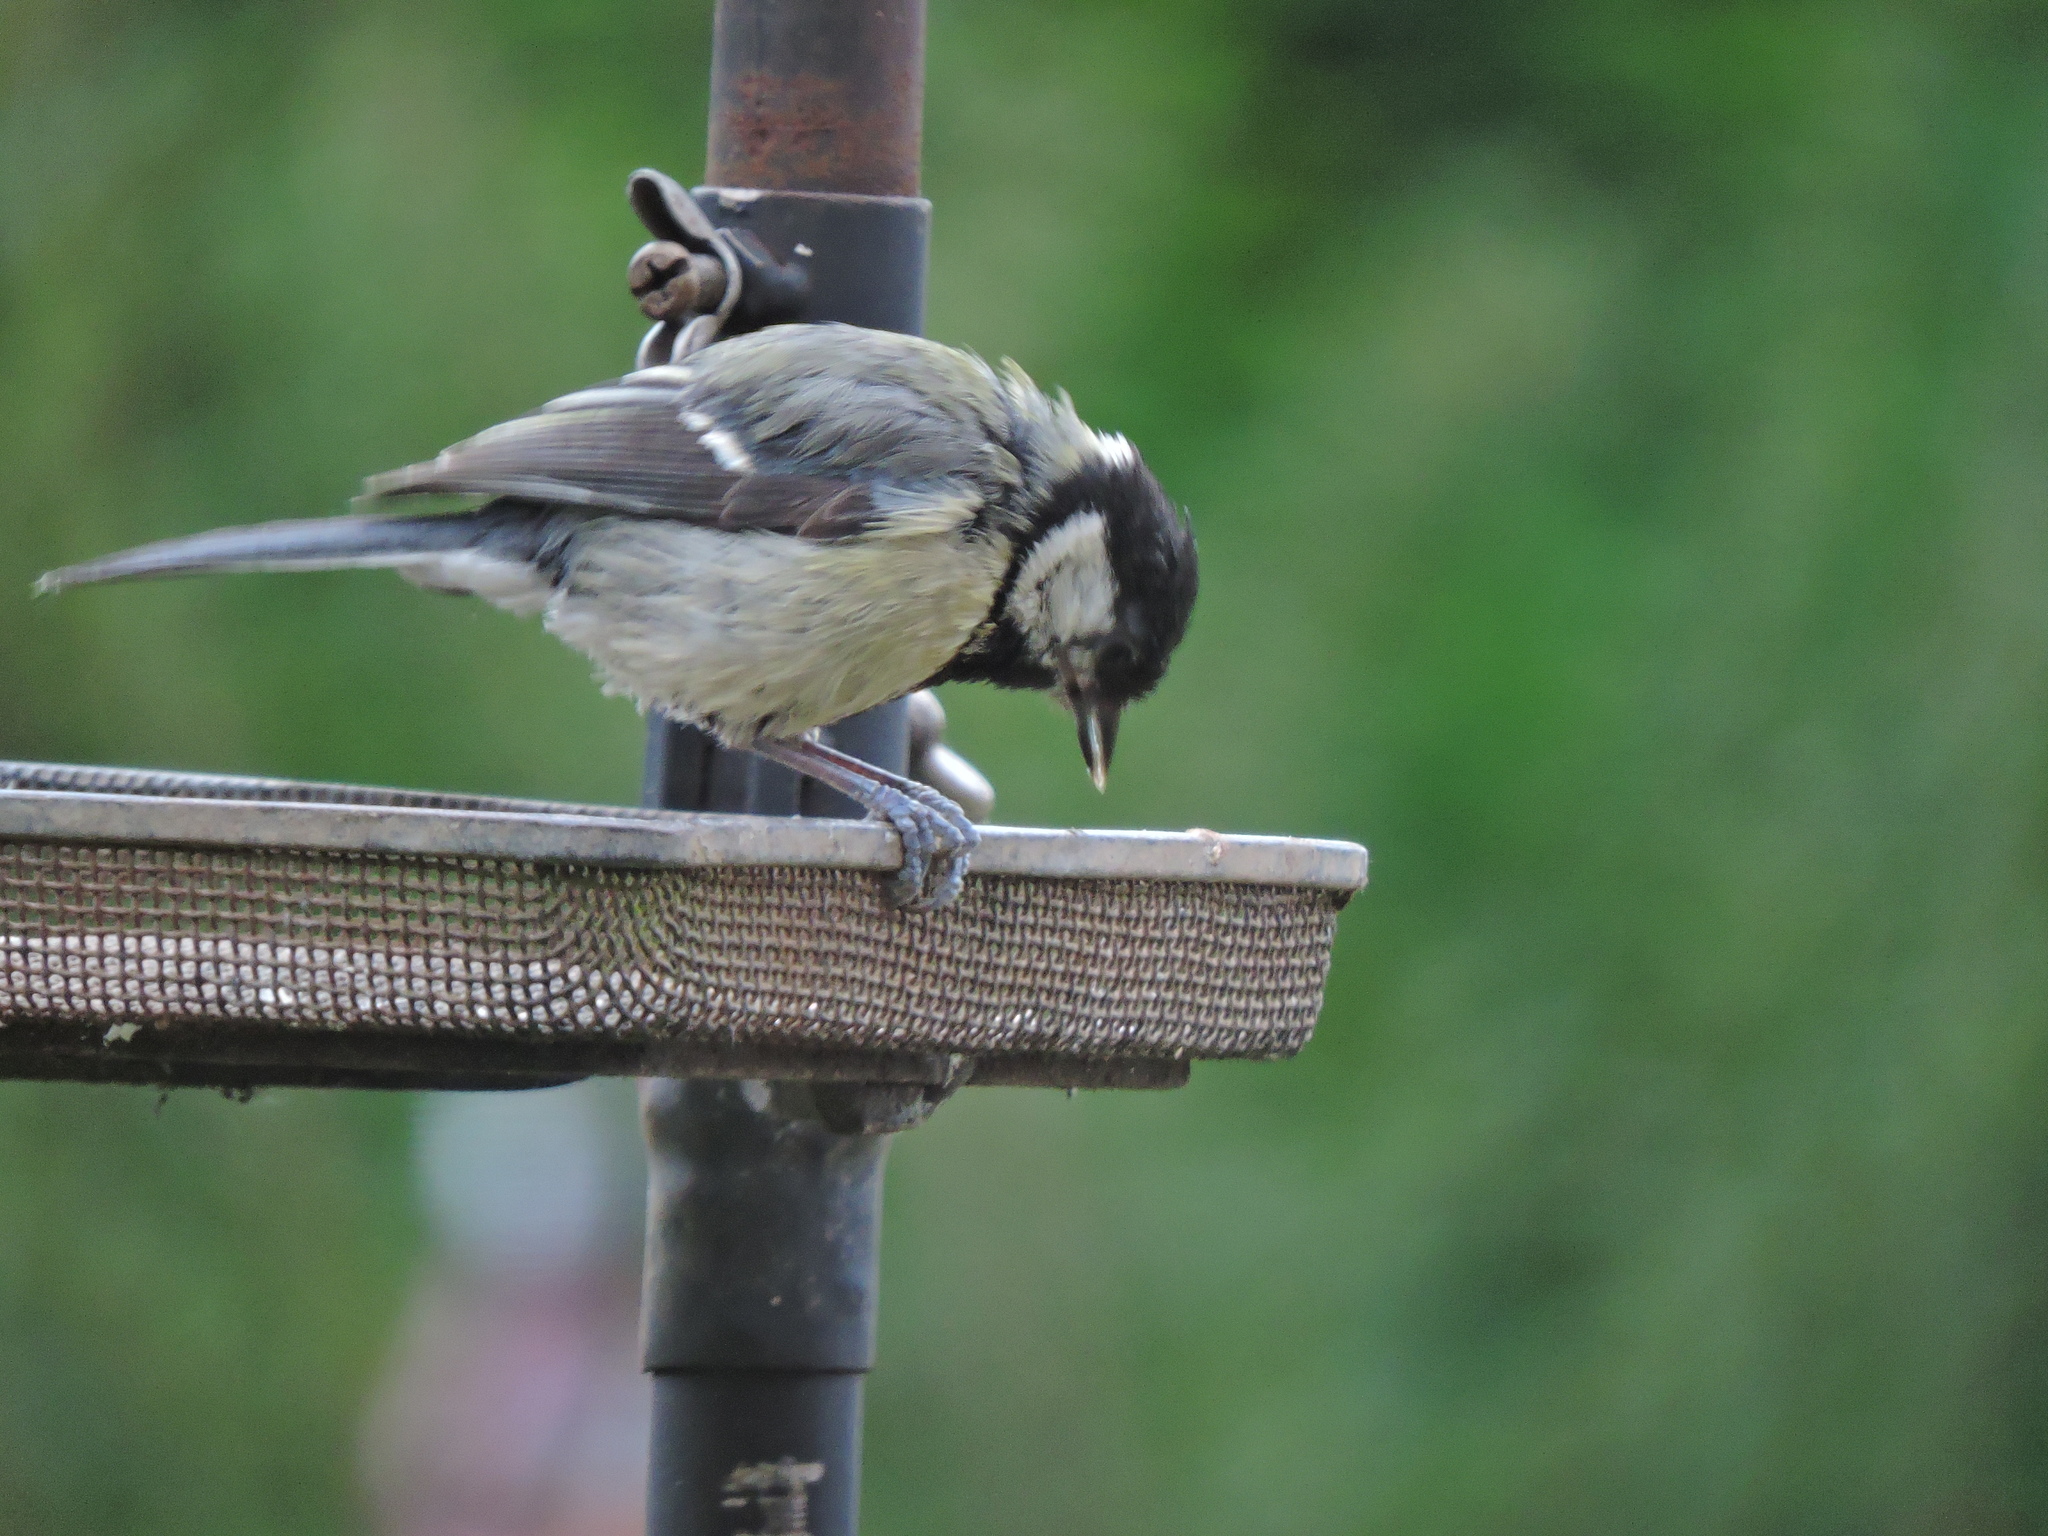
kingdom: Animalia
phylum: Chordata
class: Aves
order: Passeriformes
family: Paridae
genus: Parus
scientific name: Parus major
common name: Great tit
